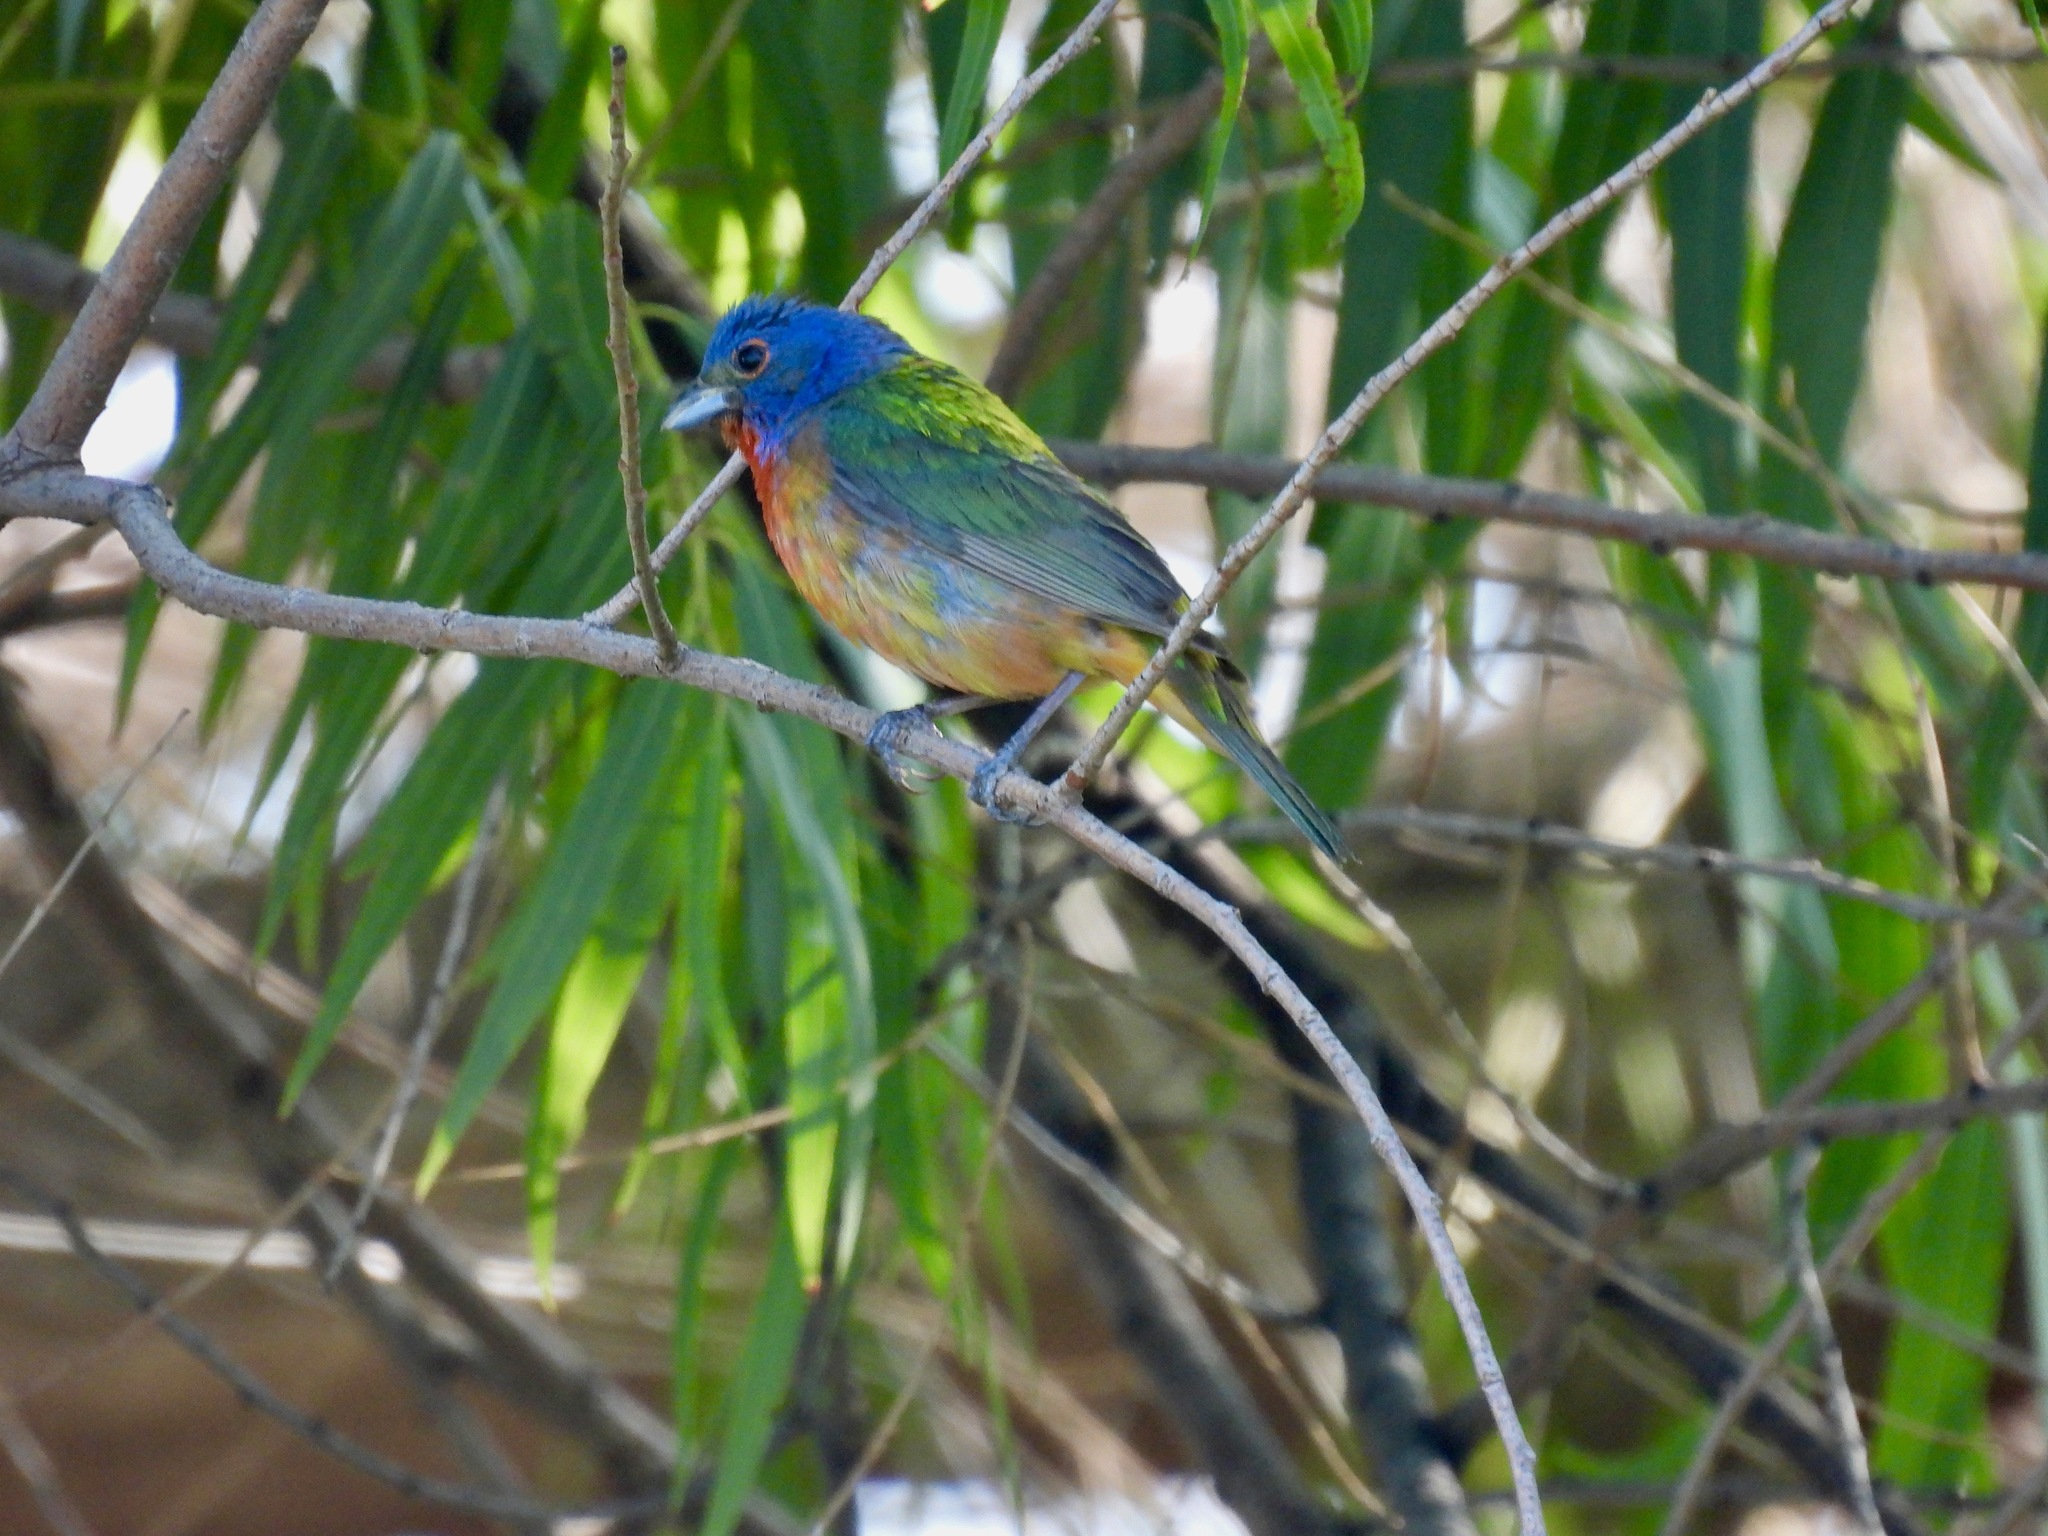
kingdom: Animalia
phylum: Chordata
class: Aves
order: Passeriformes
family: Cardinalidae
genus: Passerina
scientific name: Passerina ciris
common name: Painted bunting
